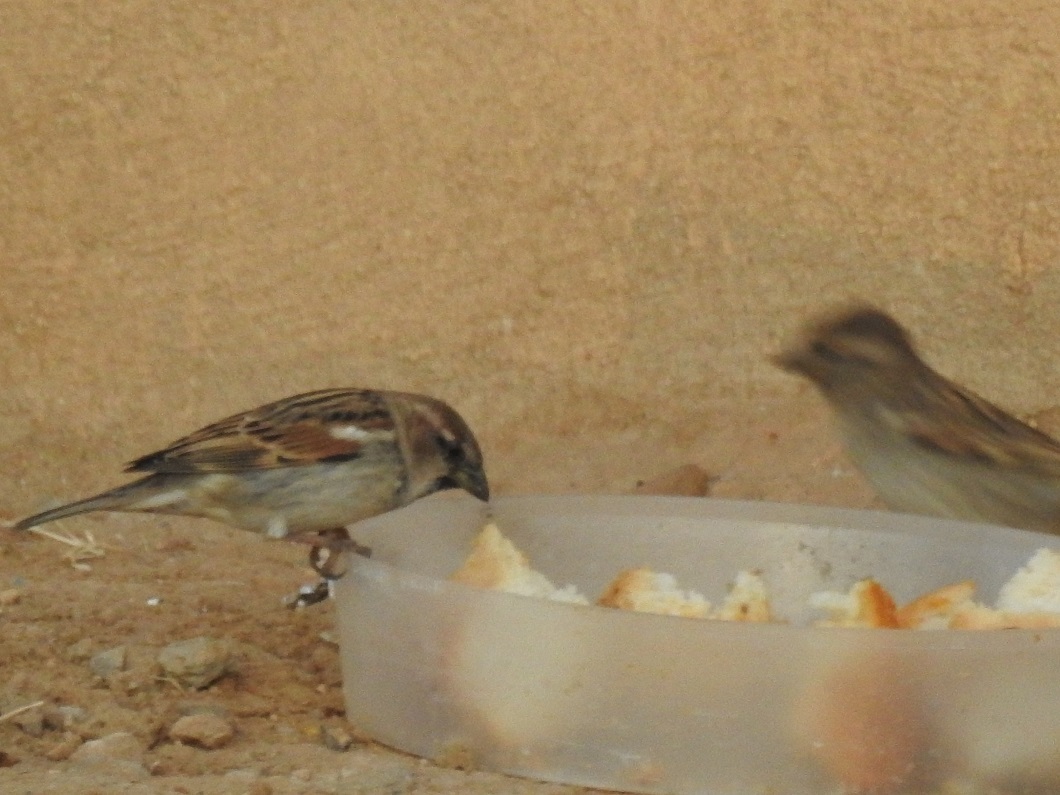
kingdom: Animalia
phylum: Chordata
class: Aves
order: Passeriformes
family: Passeridae
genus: Passer
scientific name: Passer domesticus
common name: House sparrow
